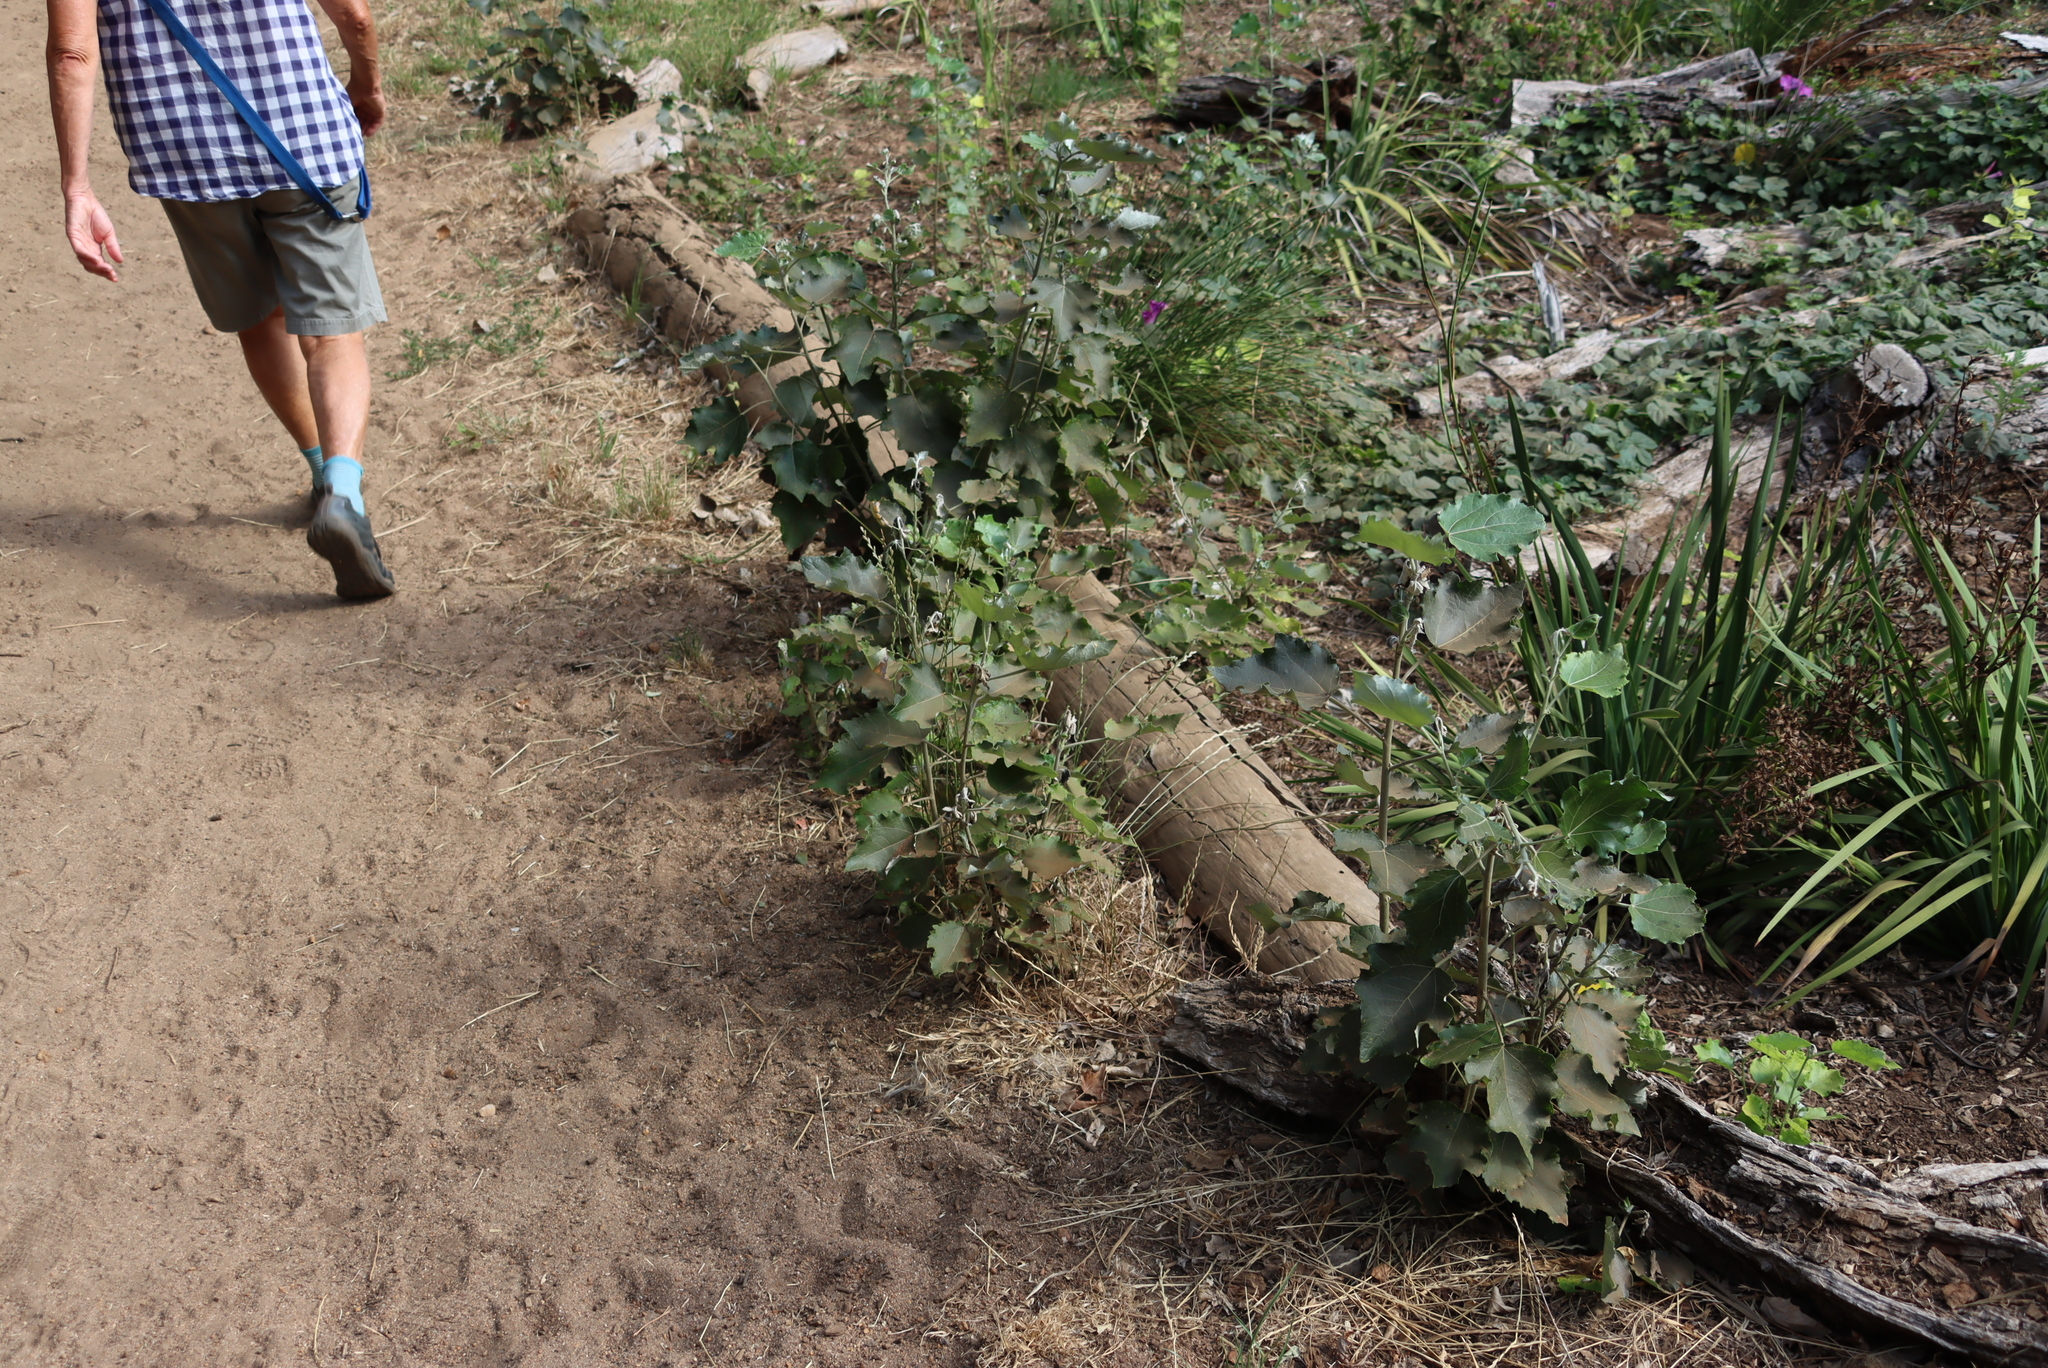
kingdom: Plantae
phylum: Tracheophyta
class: Magnoliopsida
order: Malpighiales
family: Salicaceae
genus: Populus
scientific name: Populus alba
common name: White poplar
